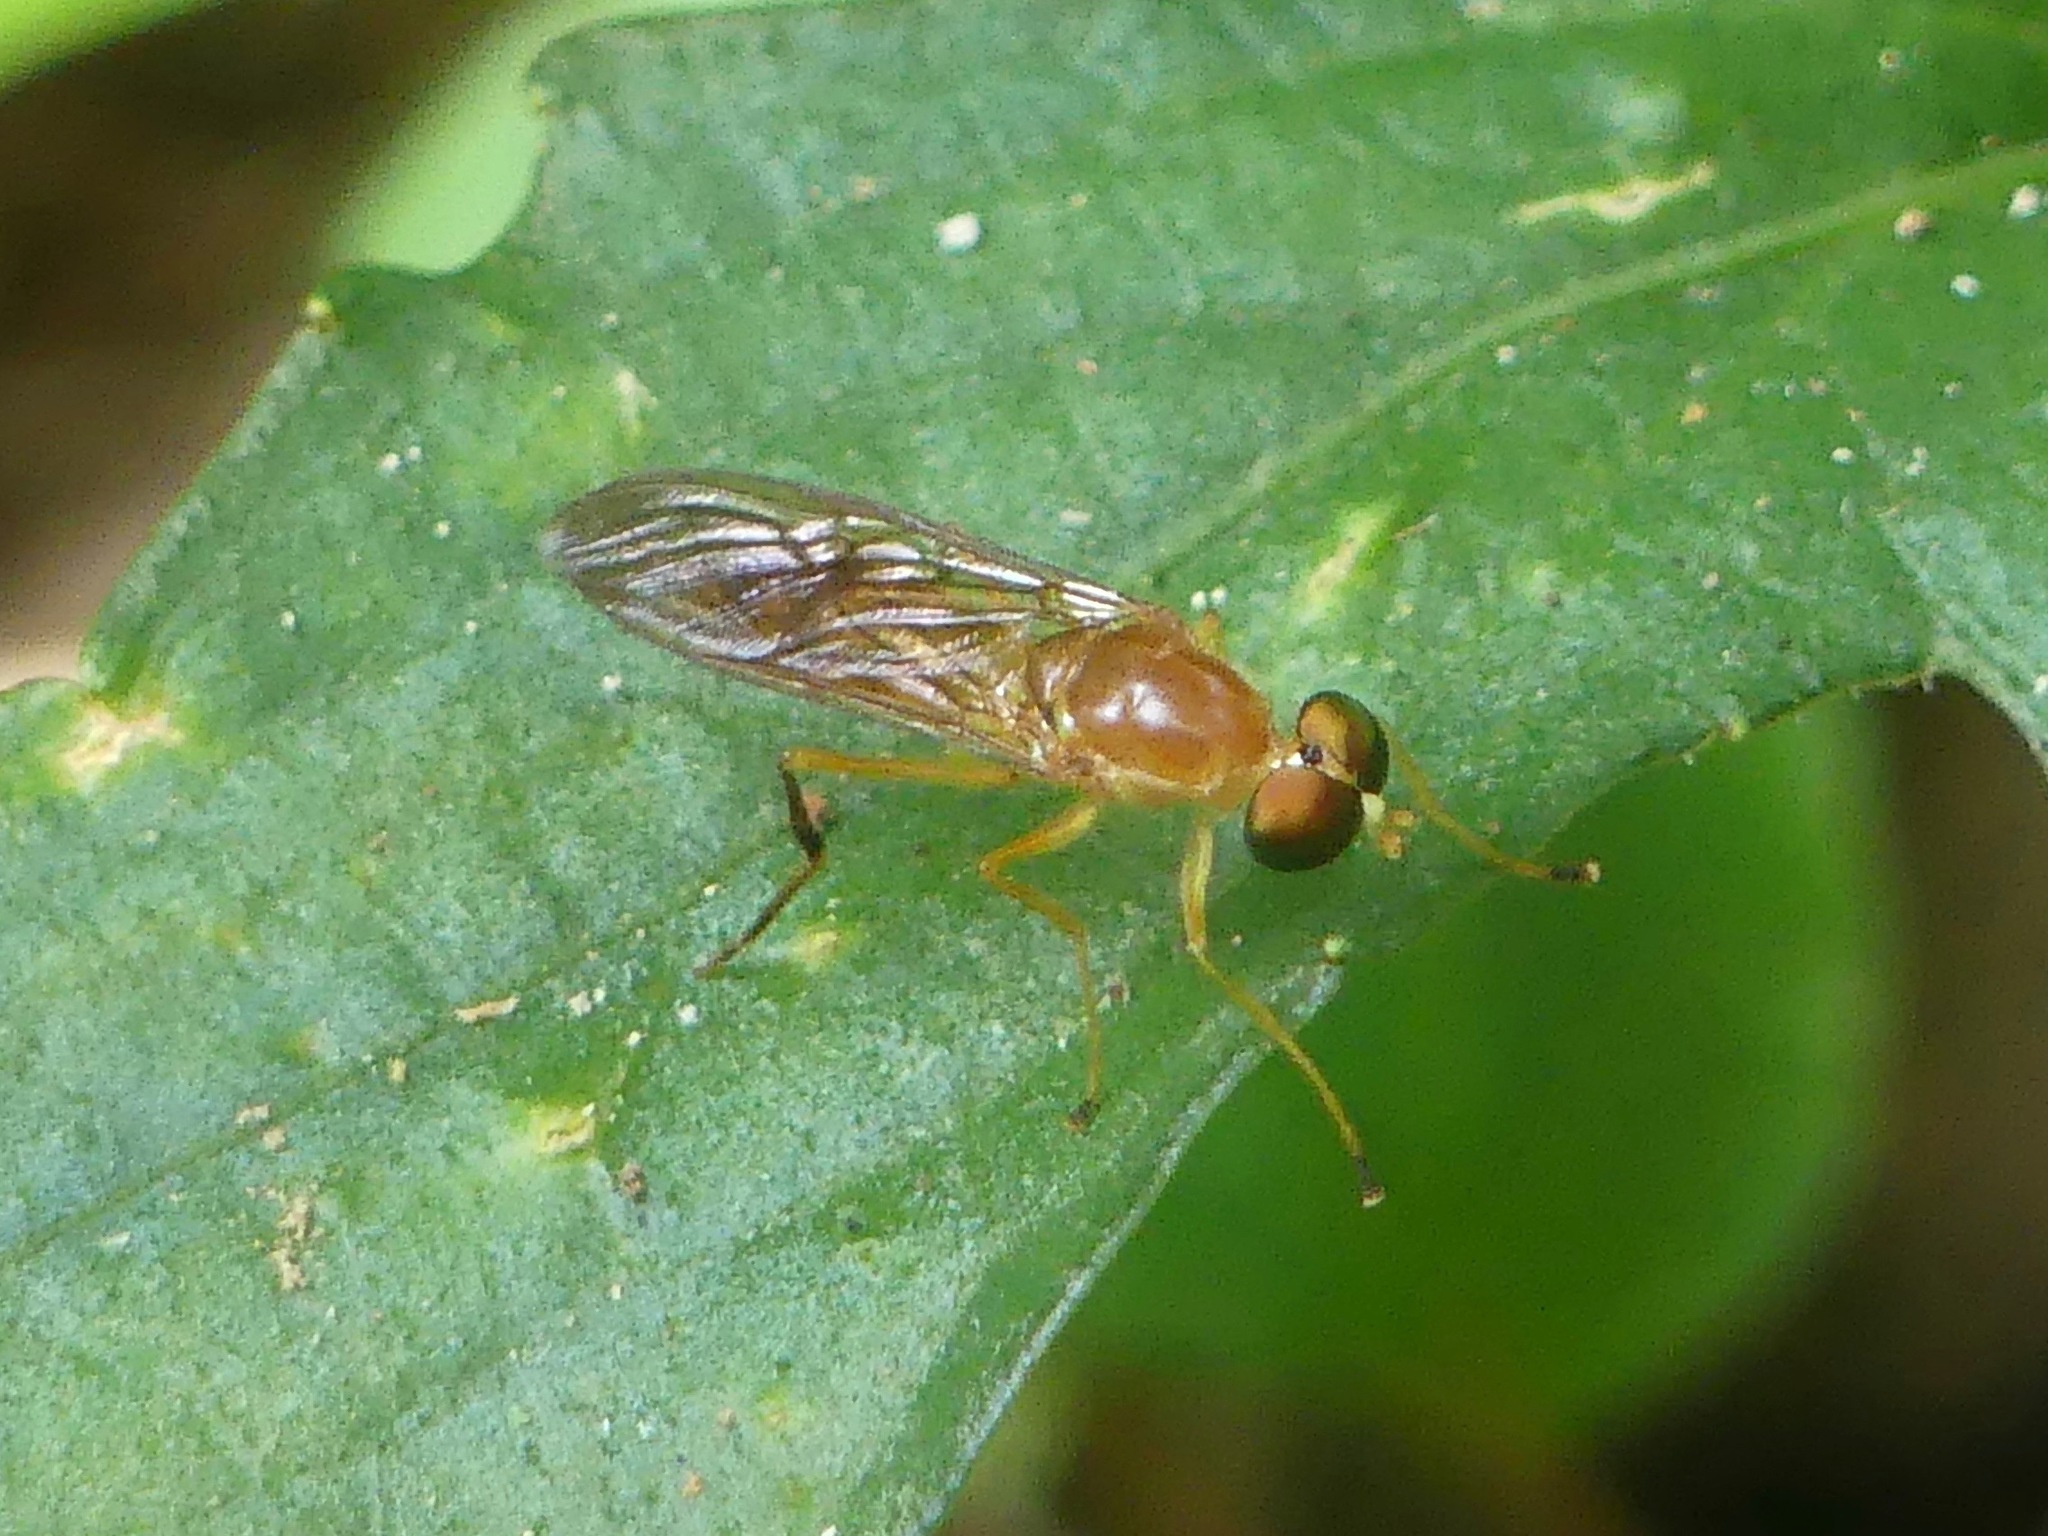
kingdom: Animalia
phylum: Arthropoda
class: Insecta
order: Diptera
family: Stratiomyidae
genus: Ptecticus
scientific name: Ptecticus trivittatus
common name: Compost fly
